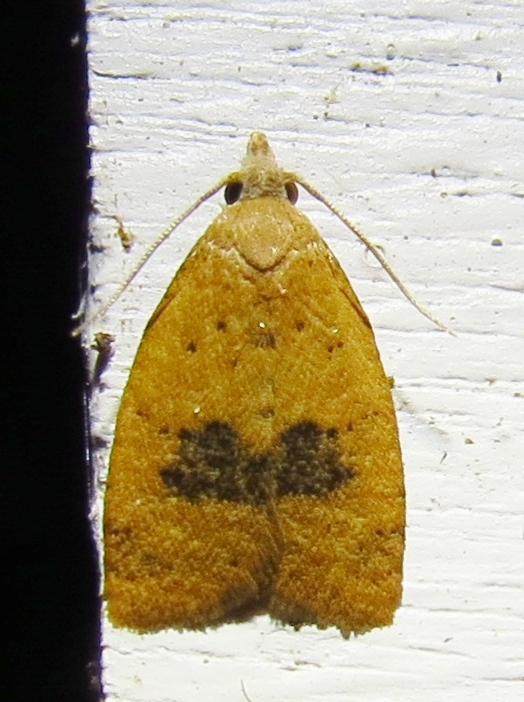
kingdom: Animalia
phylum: Arthropoda
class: Insecta
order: Lepidoptera
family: Tortricidae
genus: Sparganothoides
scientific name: Sparganothoides lentiginosana
